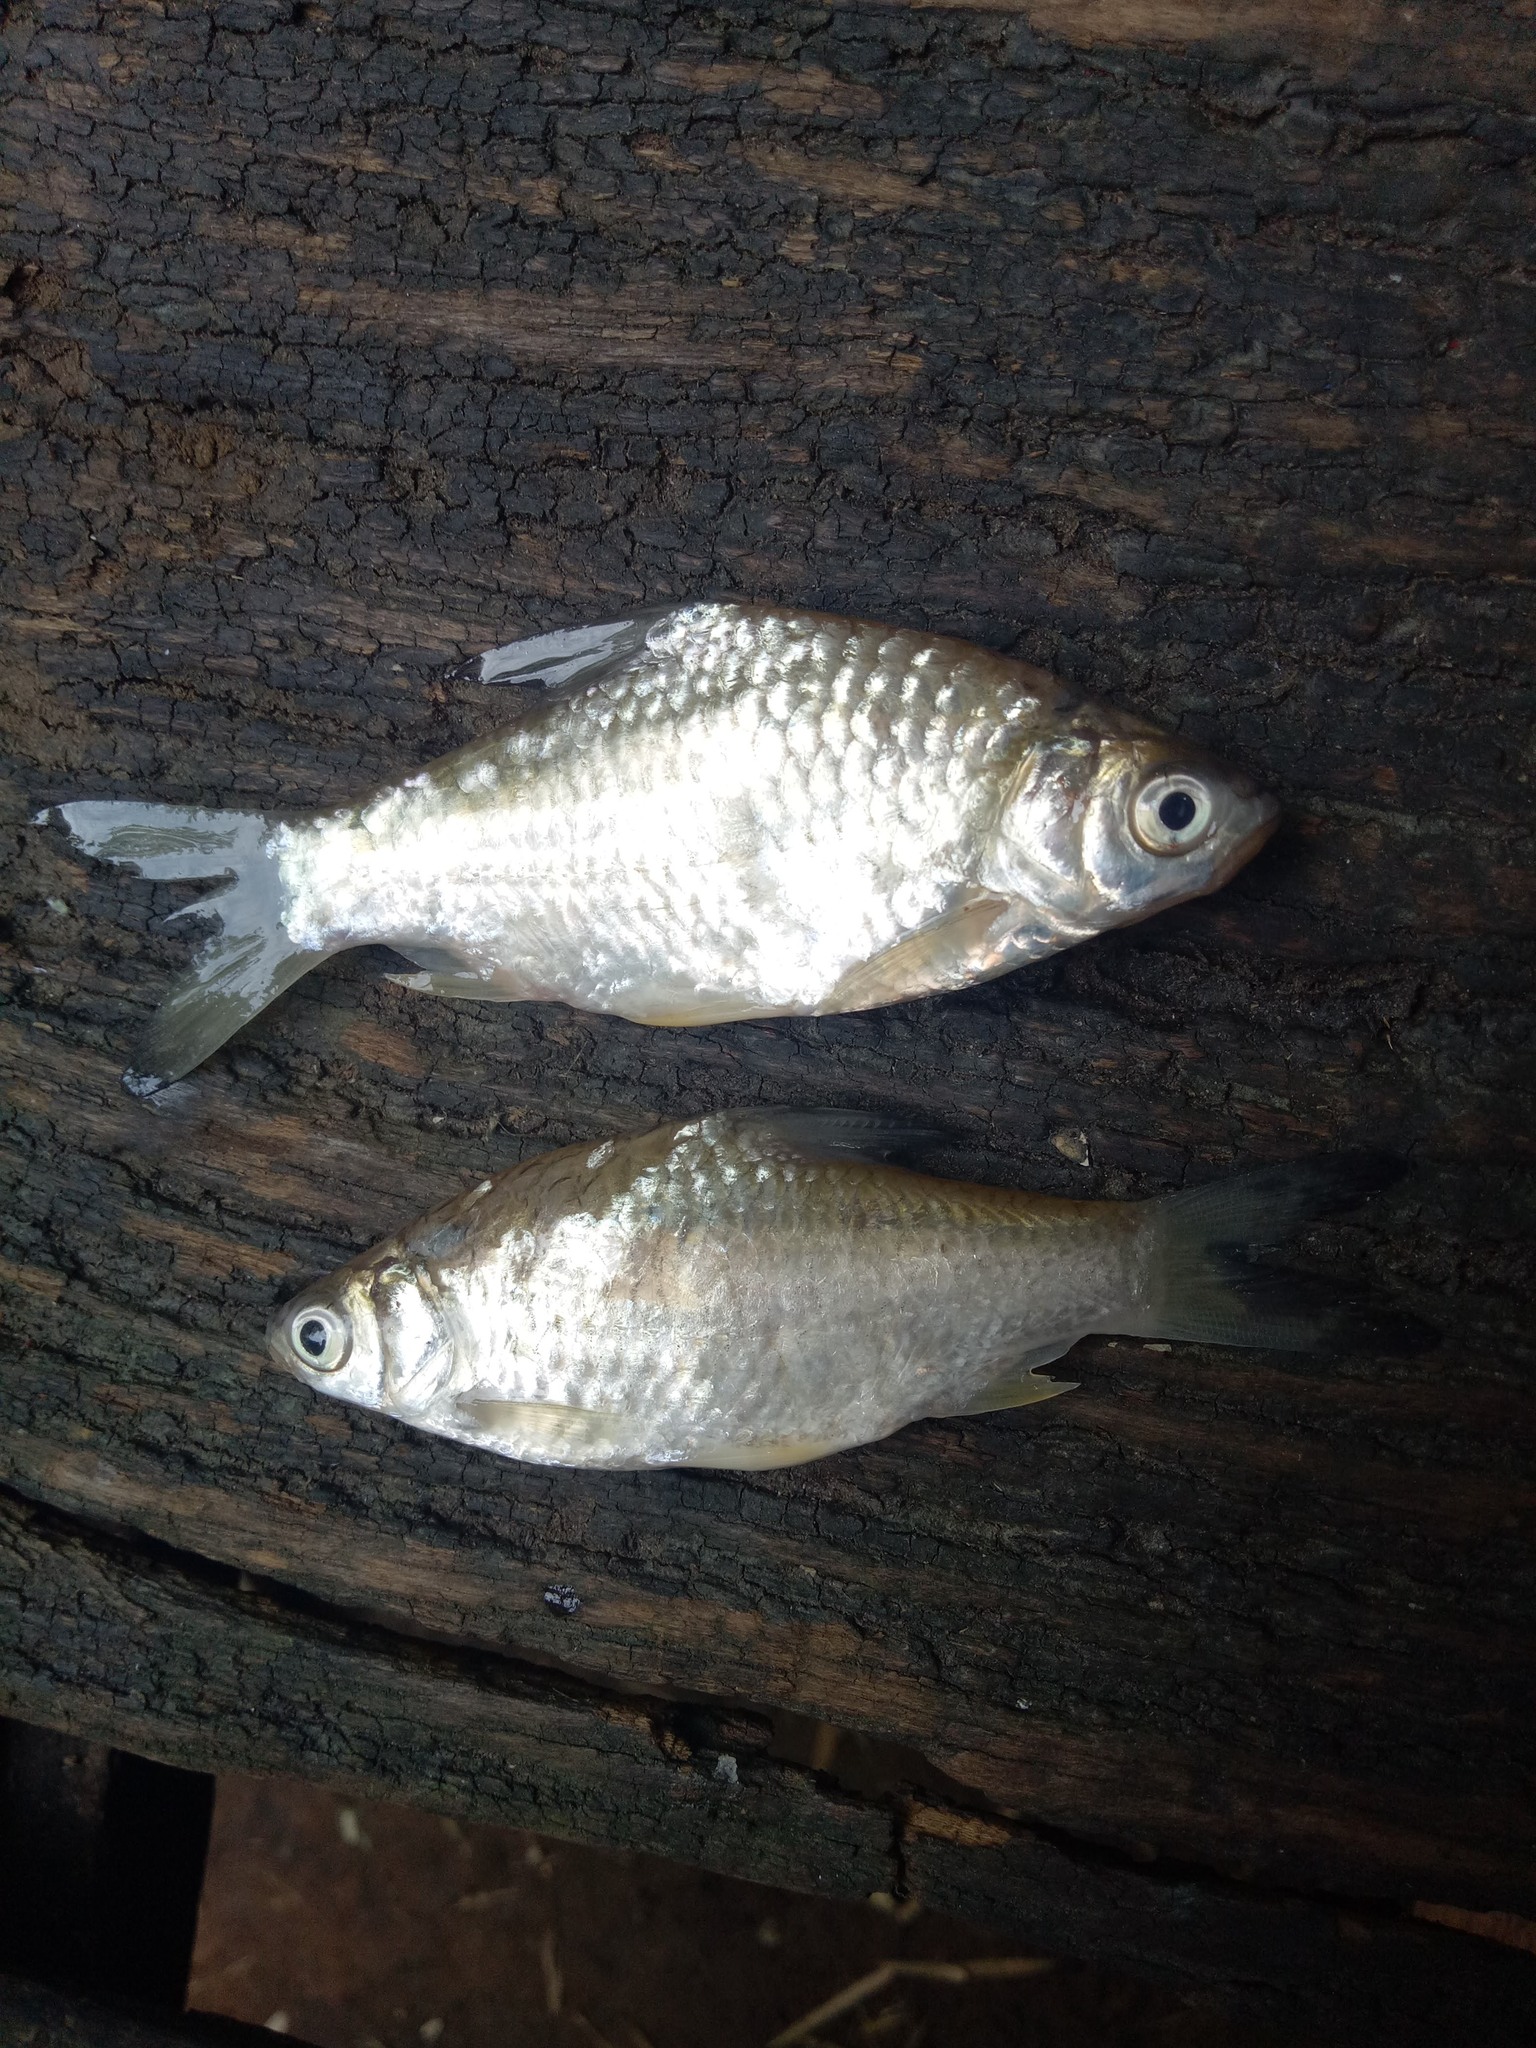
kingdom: Animalia
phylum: Chordata
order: Cypriniformes
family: Cyprinidae
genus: Barbonymus
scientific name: Barbonymus gonionotus
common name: Silver barb
